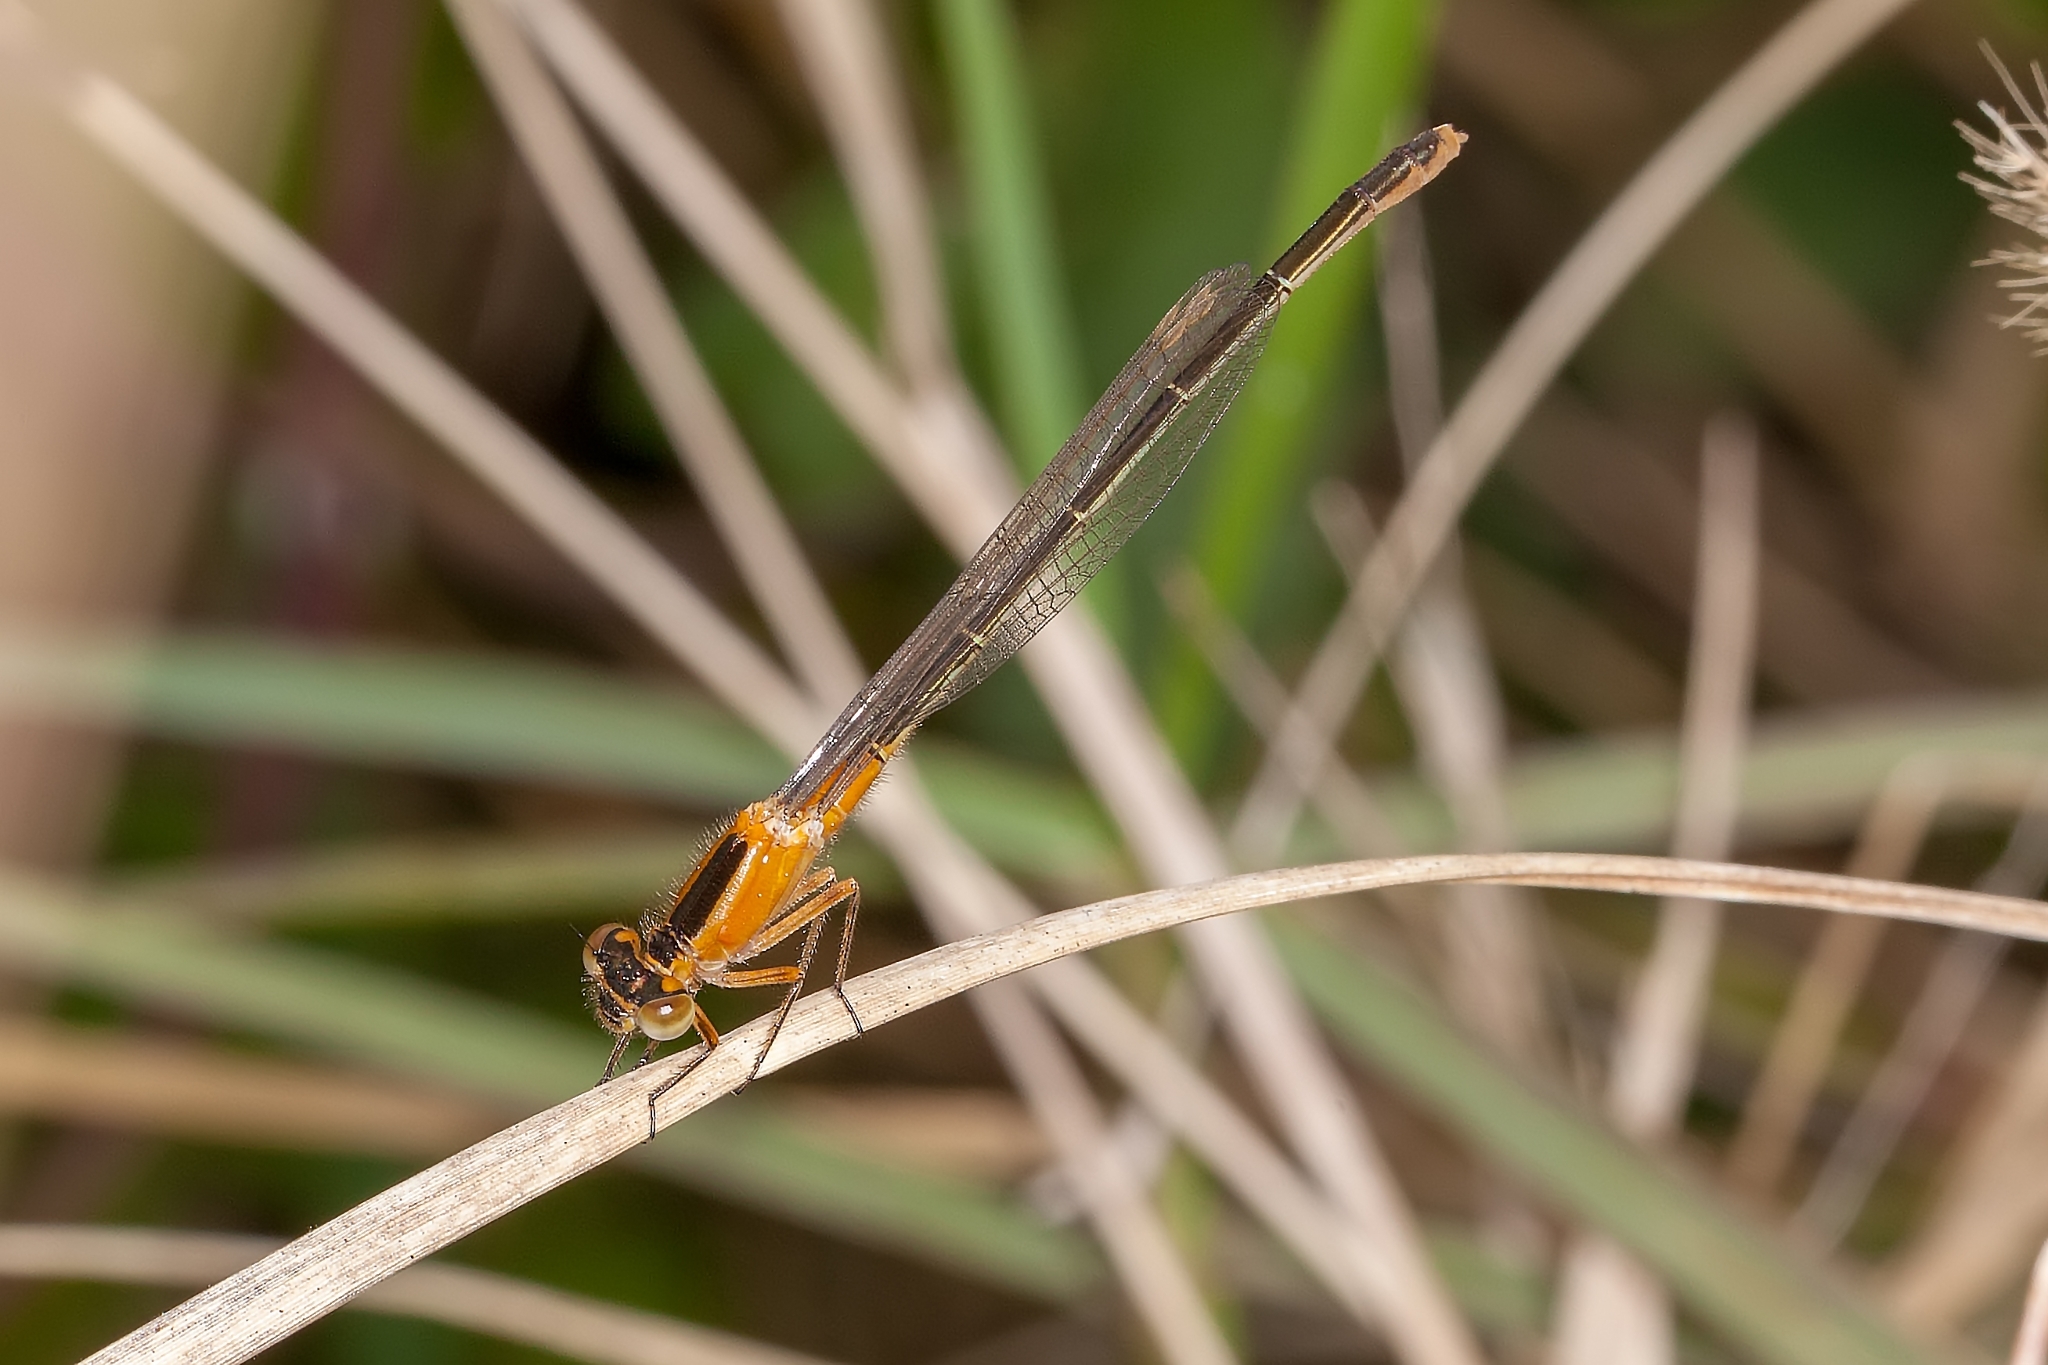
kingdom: Animalia
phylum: Arthropoda
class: Insecta
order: Odonata
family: Coenagrionidae
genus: Ischnura
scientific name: Ischnura ramburii
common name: Rambur's forktail
